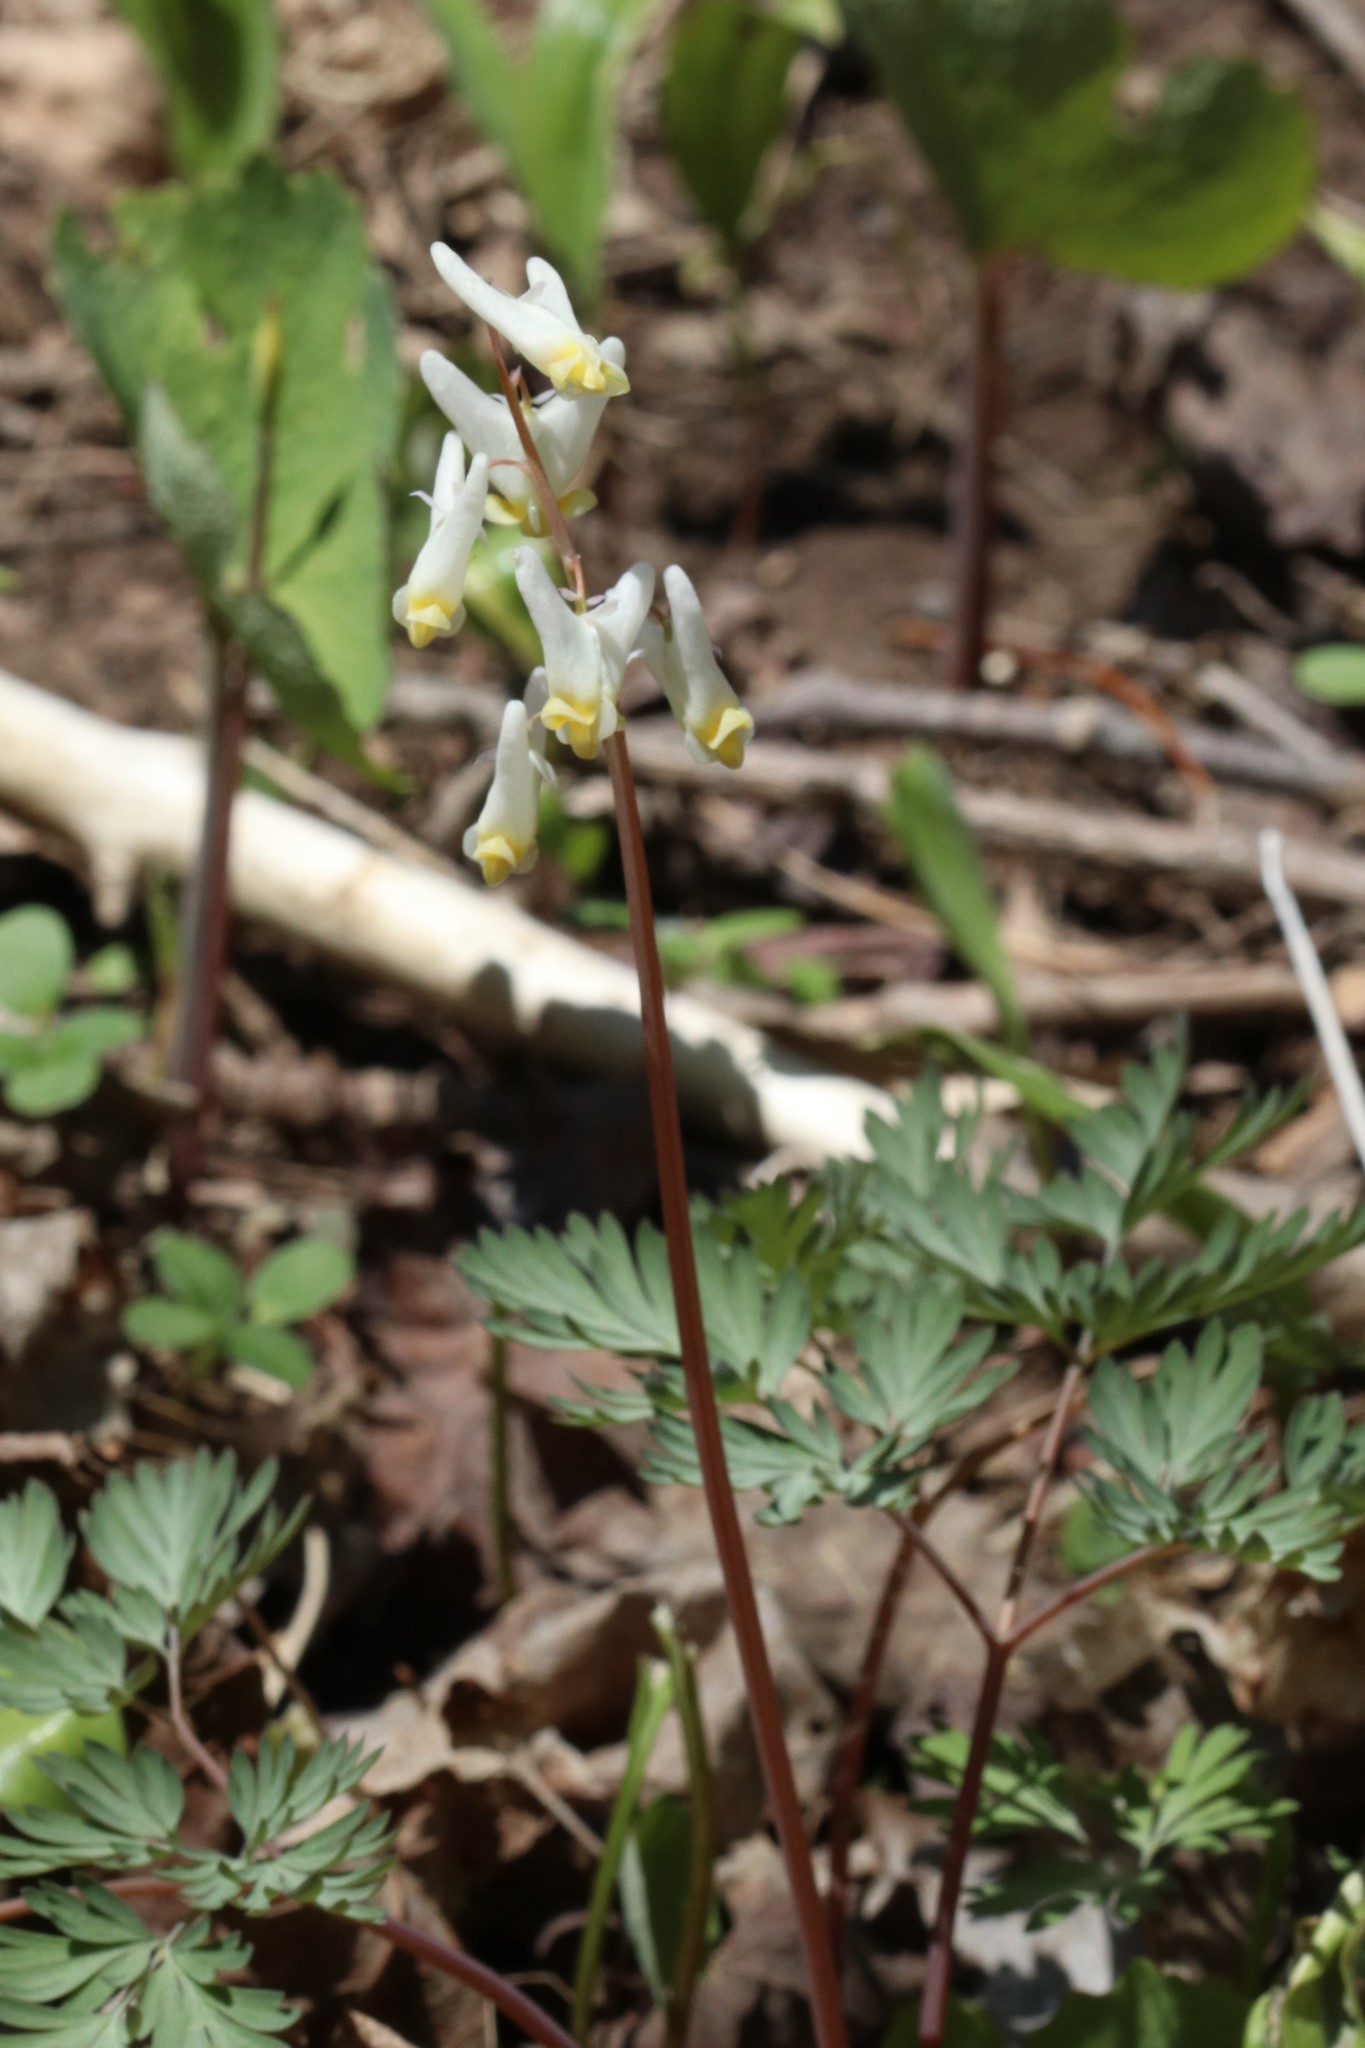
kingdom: Plantae
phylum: Tracheophyta
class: Magnoliopsida
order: Ranunculales
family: Papaveraceae
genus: Dicentra
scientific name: Dicentra cucullaria
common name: Dutchman's breeches
